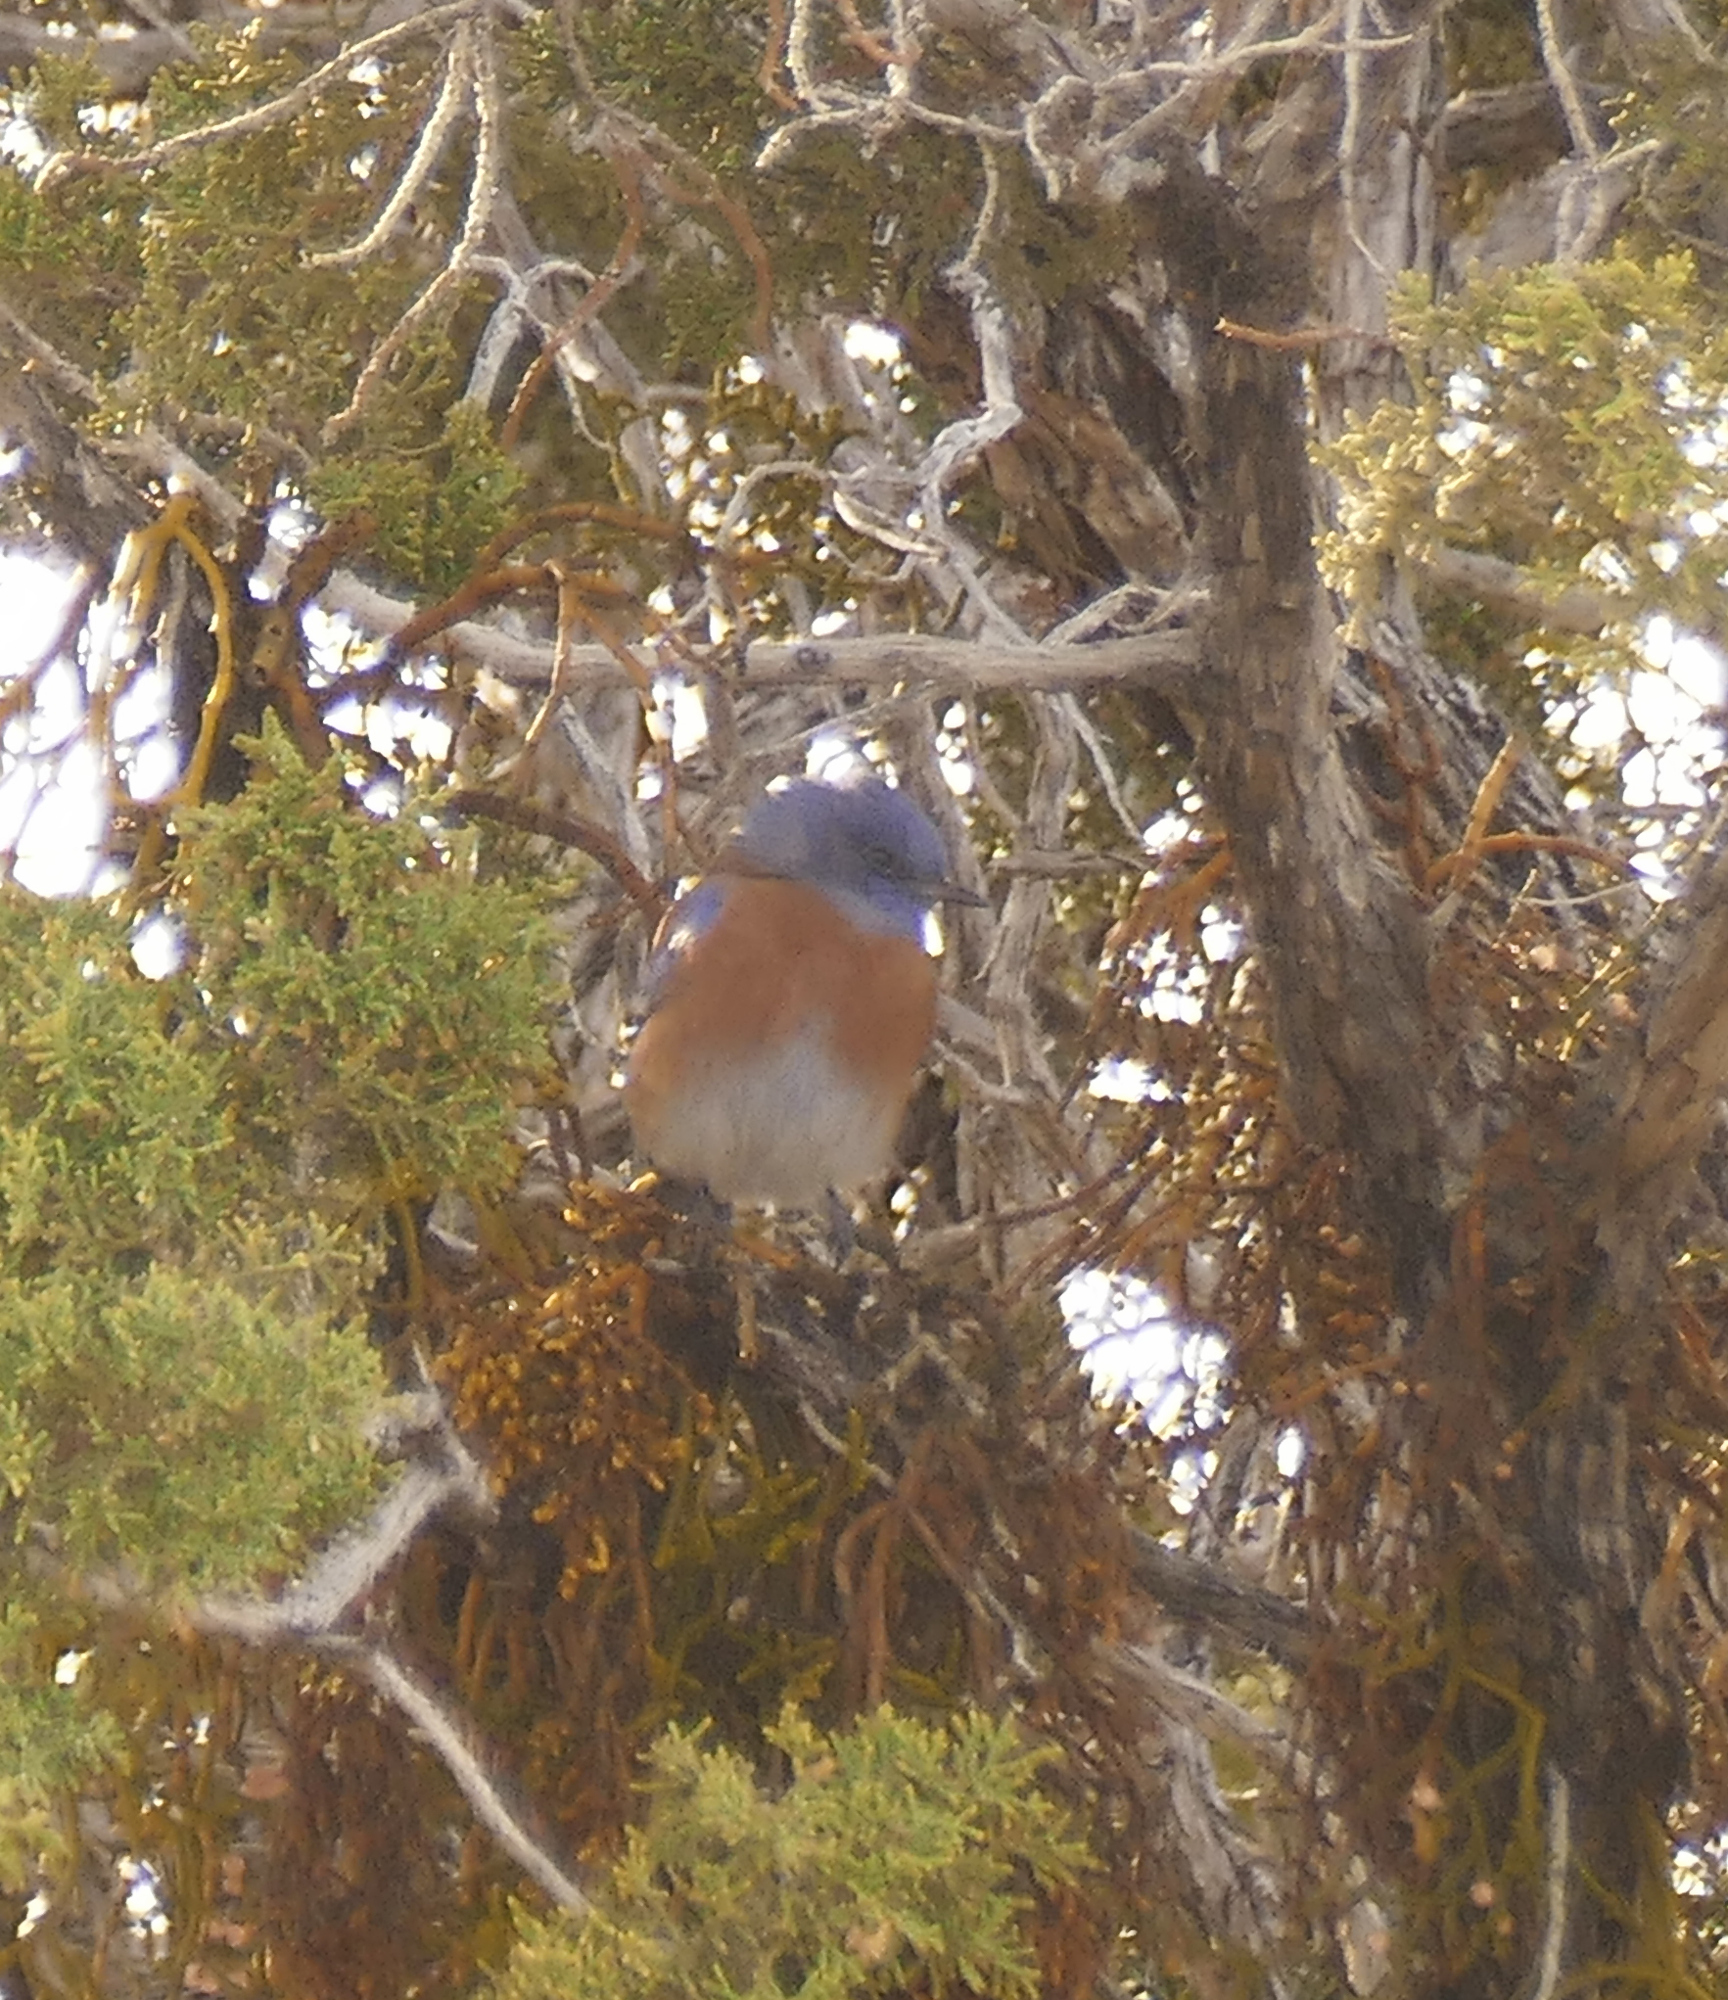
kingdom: Animalia
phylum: Chordata
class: Aves
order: Passeriformes
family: Turdidae
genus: Sialia
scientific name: Sialia mexicana
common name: Western bluebird
